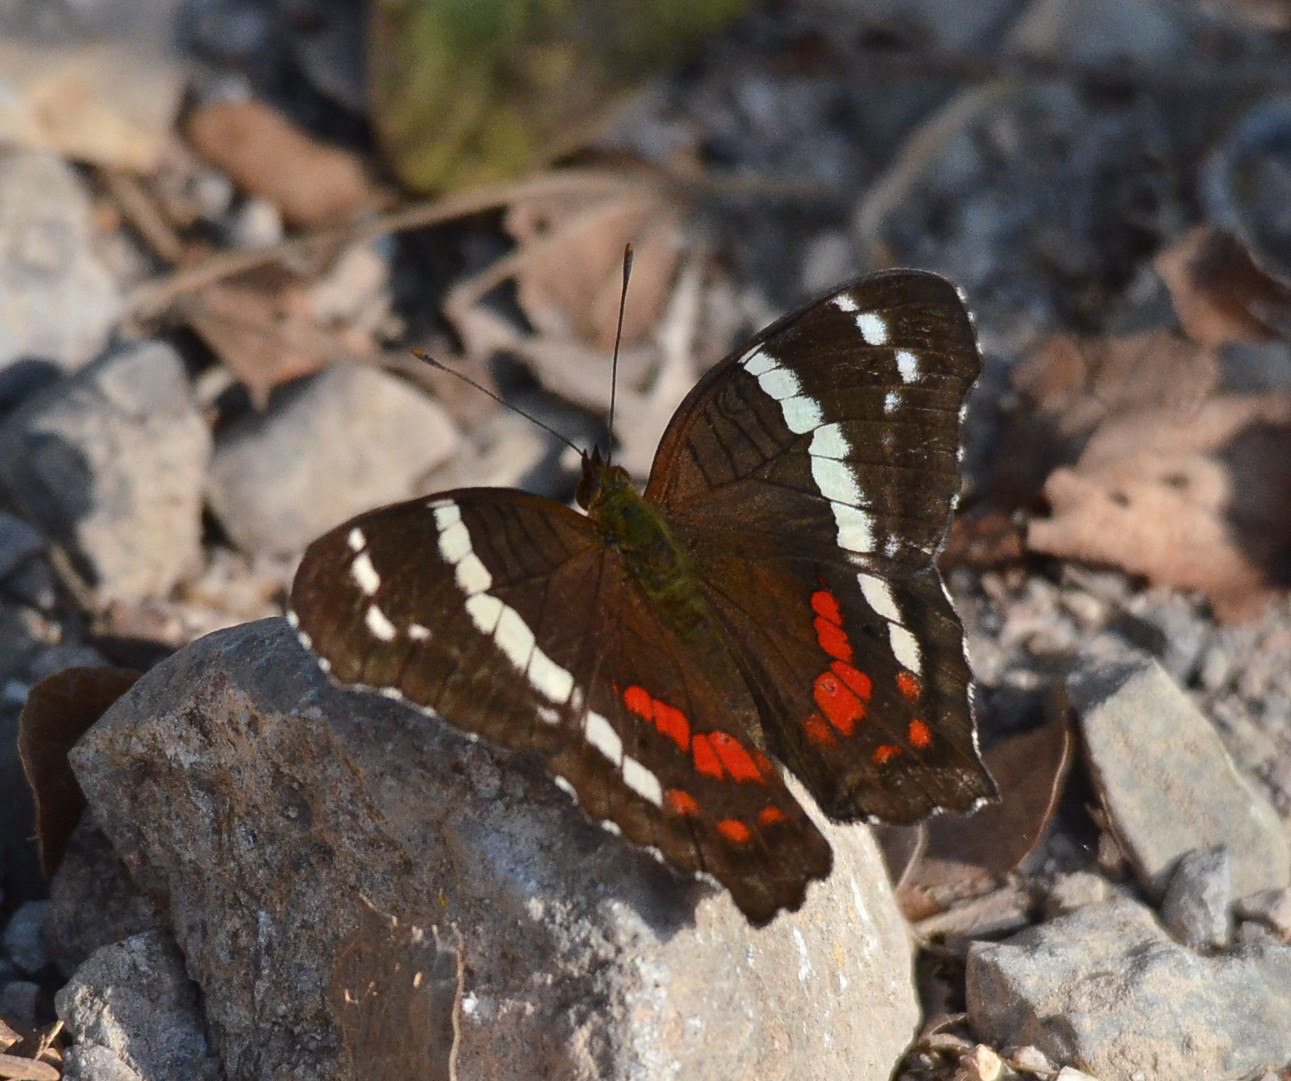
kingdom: Animalia
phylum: Arthropoda
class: Insecta
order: Lepidoptera
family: Nymphalidae
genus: Anartia
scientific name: Anartia fatima
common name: Banded peacock
